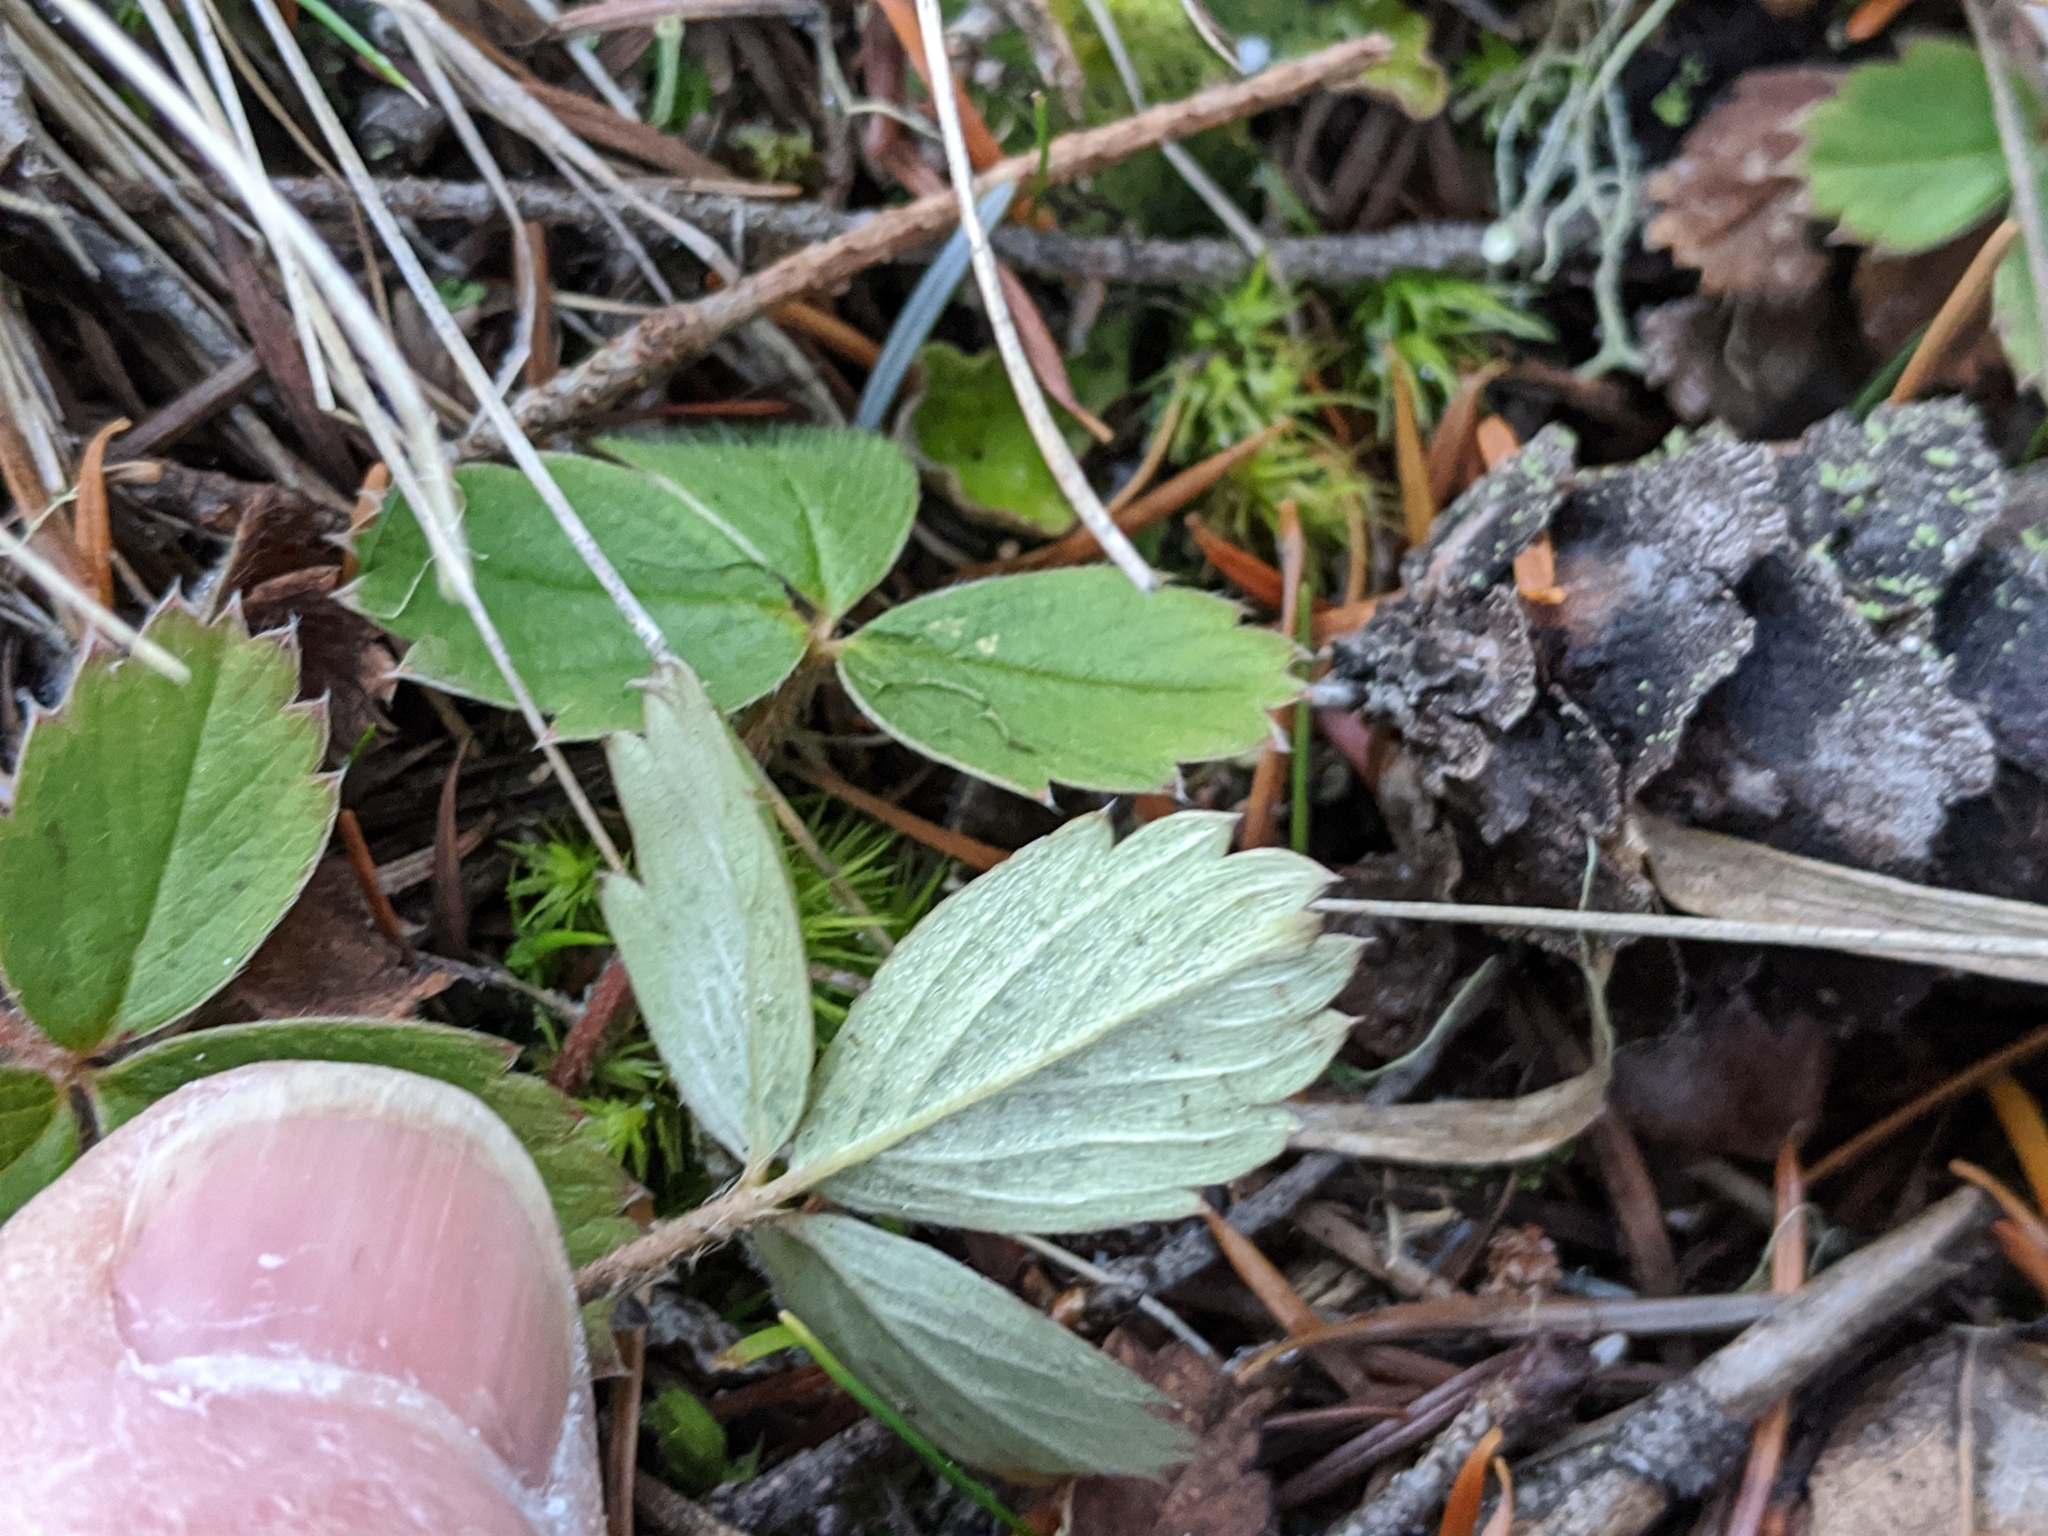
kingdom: Plantae
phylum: Tracheophyta
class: Magnoliopsida
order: Rosales
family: Rosaceae
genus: Fragaria
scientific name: Fragaria virginiana
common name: Thickleaved wild strawberry
